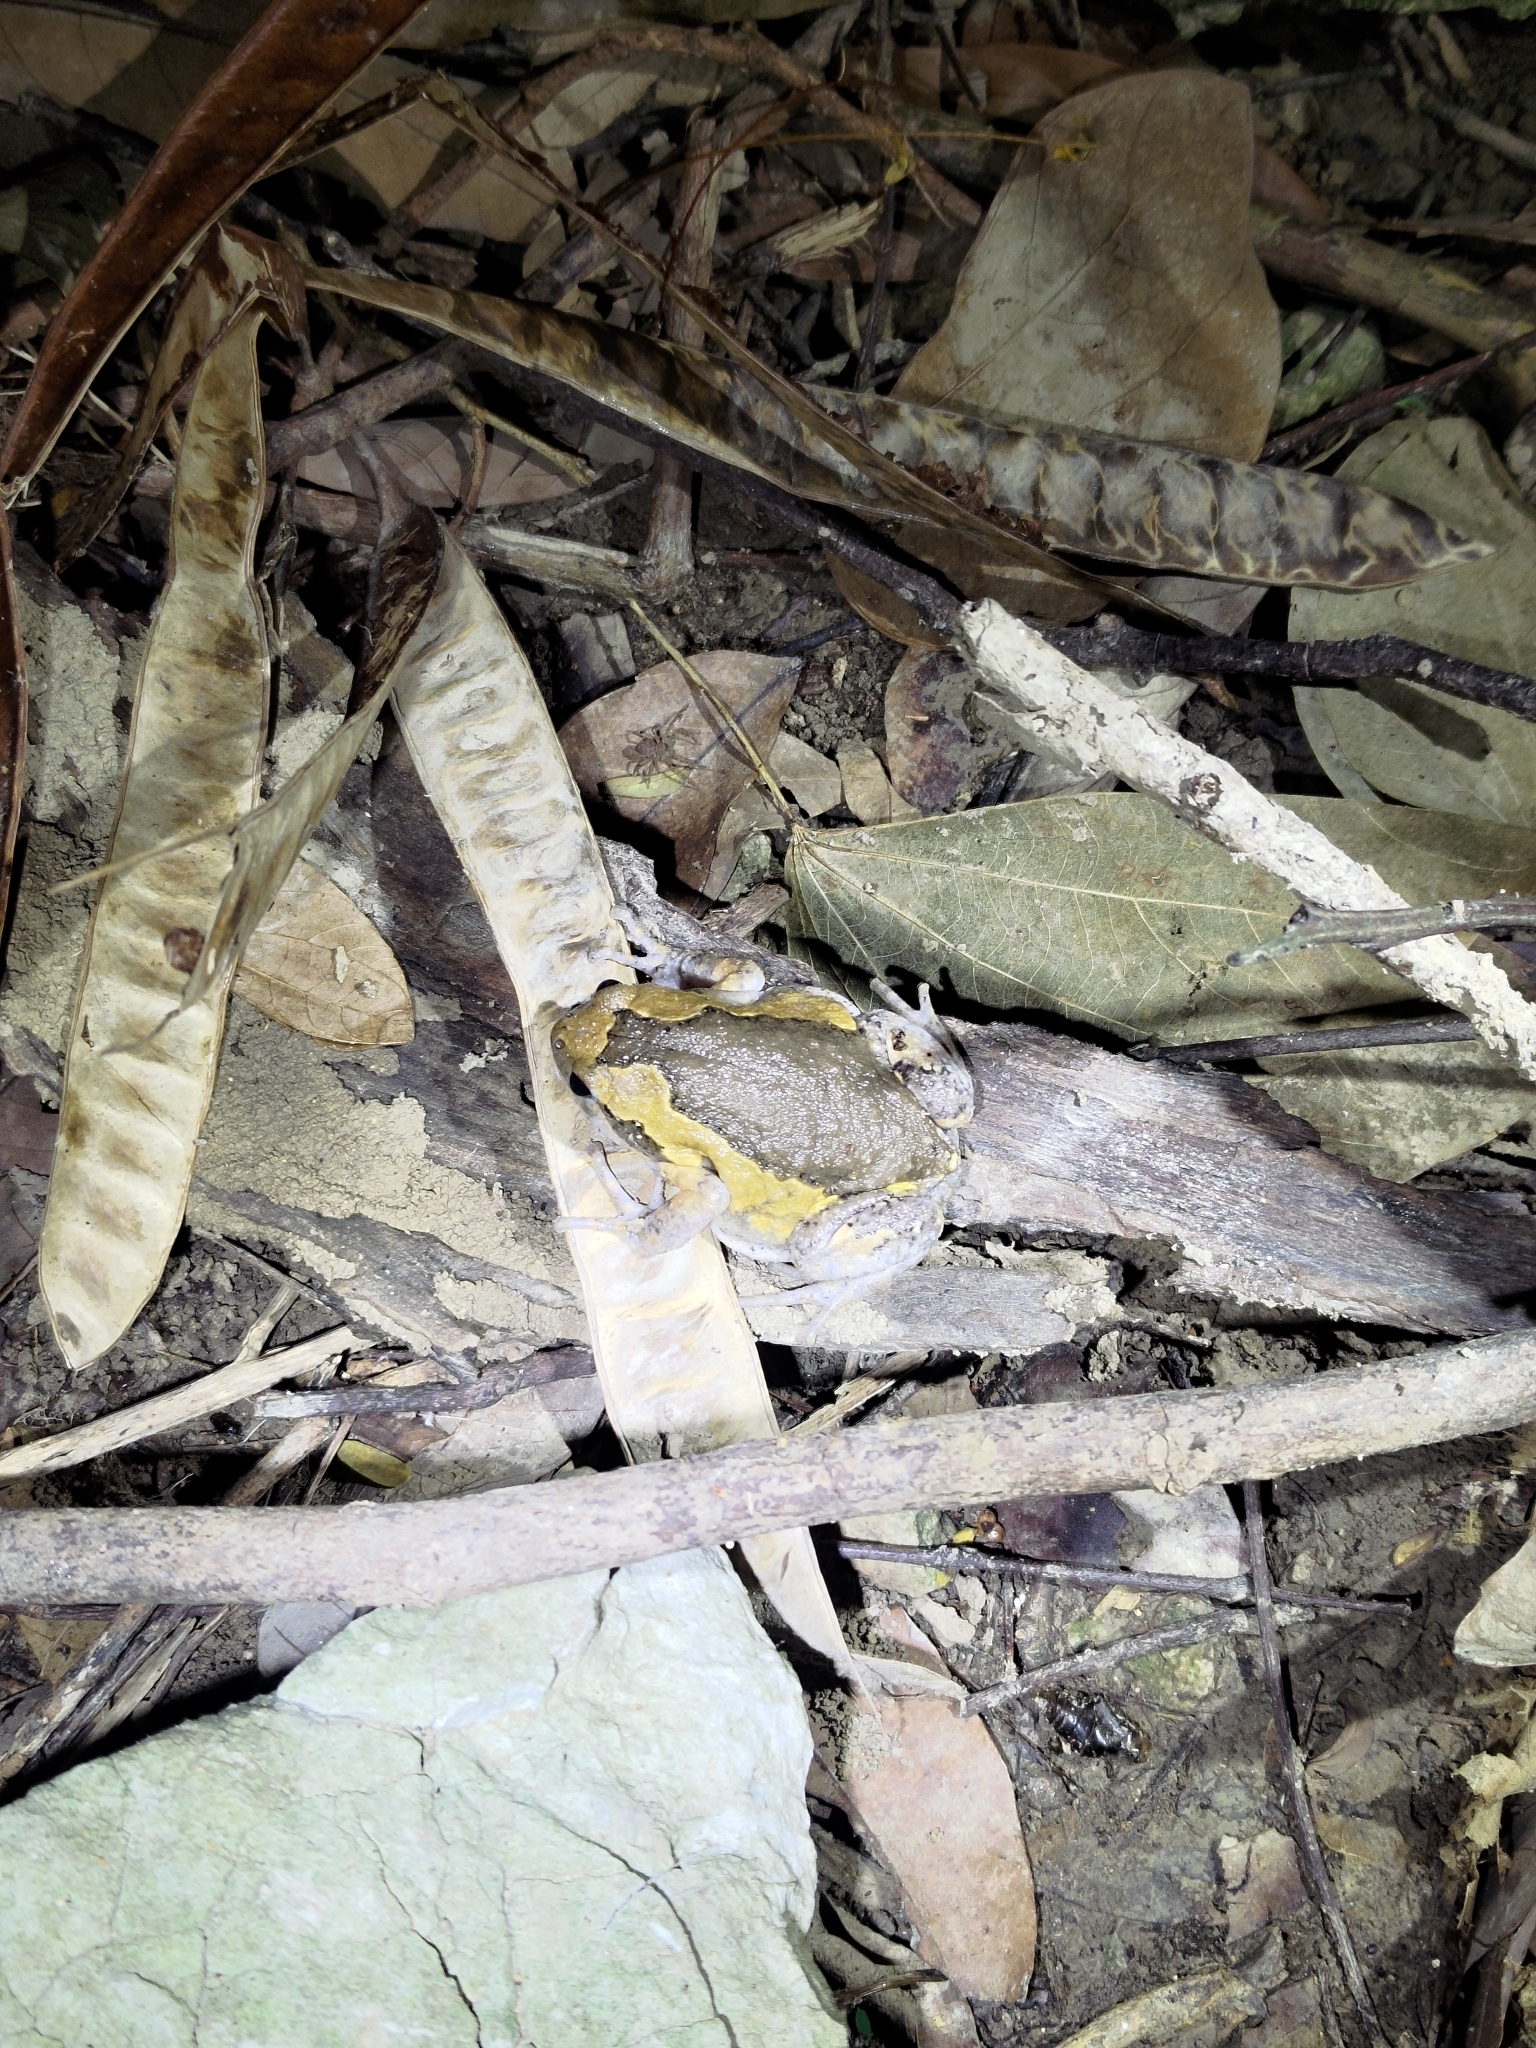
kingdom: Animalia
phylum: Chordata
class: Amphibia
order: Anura
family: Microhylidae
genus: Kaloula
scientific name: Kaloula pulchra
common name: Common,banded bullfrog
